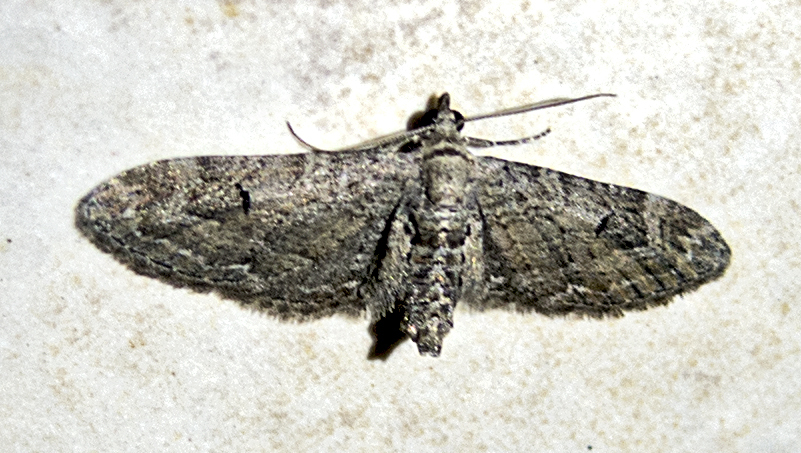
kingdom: Animalia
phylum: Arthropoda
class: Insecta
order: Lepidoptera
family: Geometridae
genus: Eupithecia
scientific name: Eupithecia innotata
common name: Angle-barred pug
